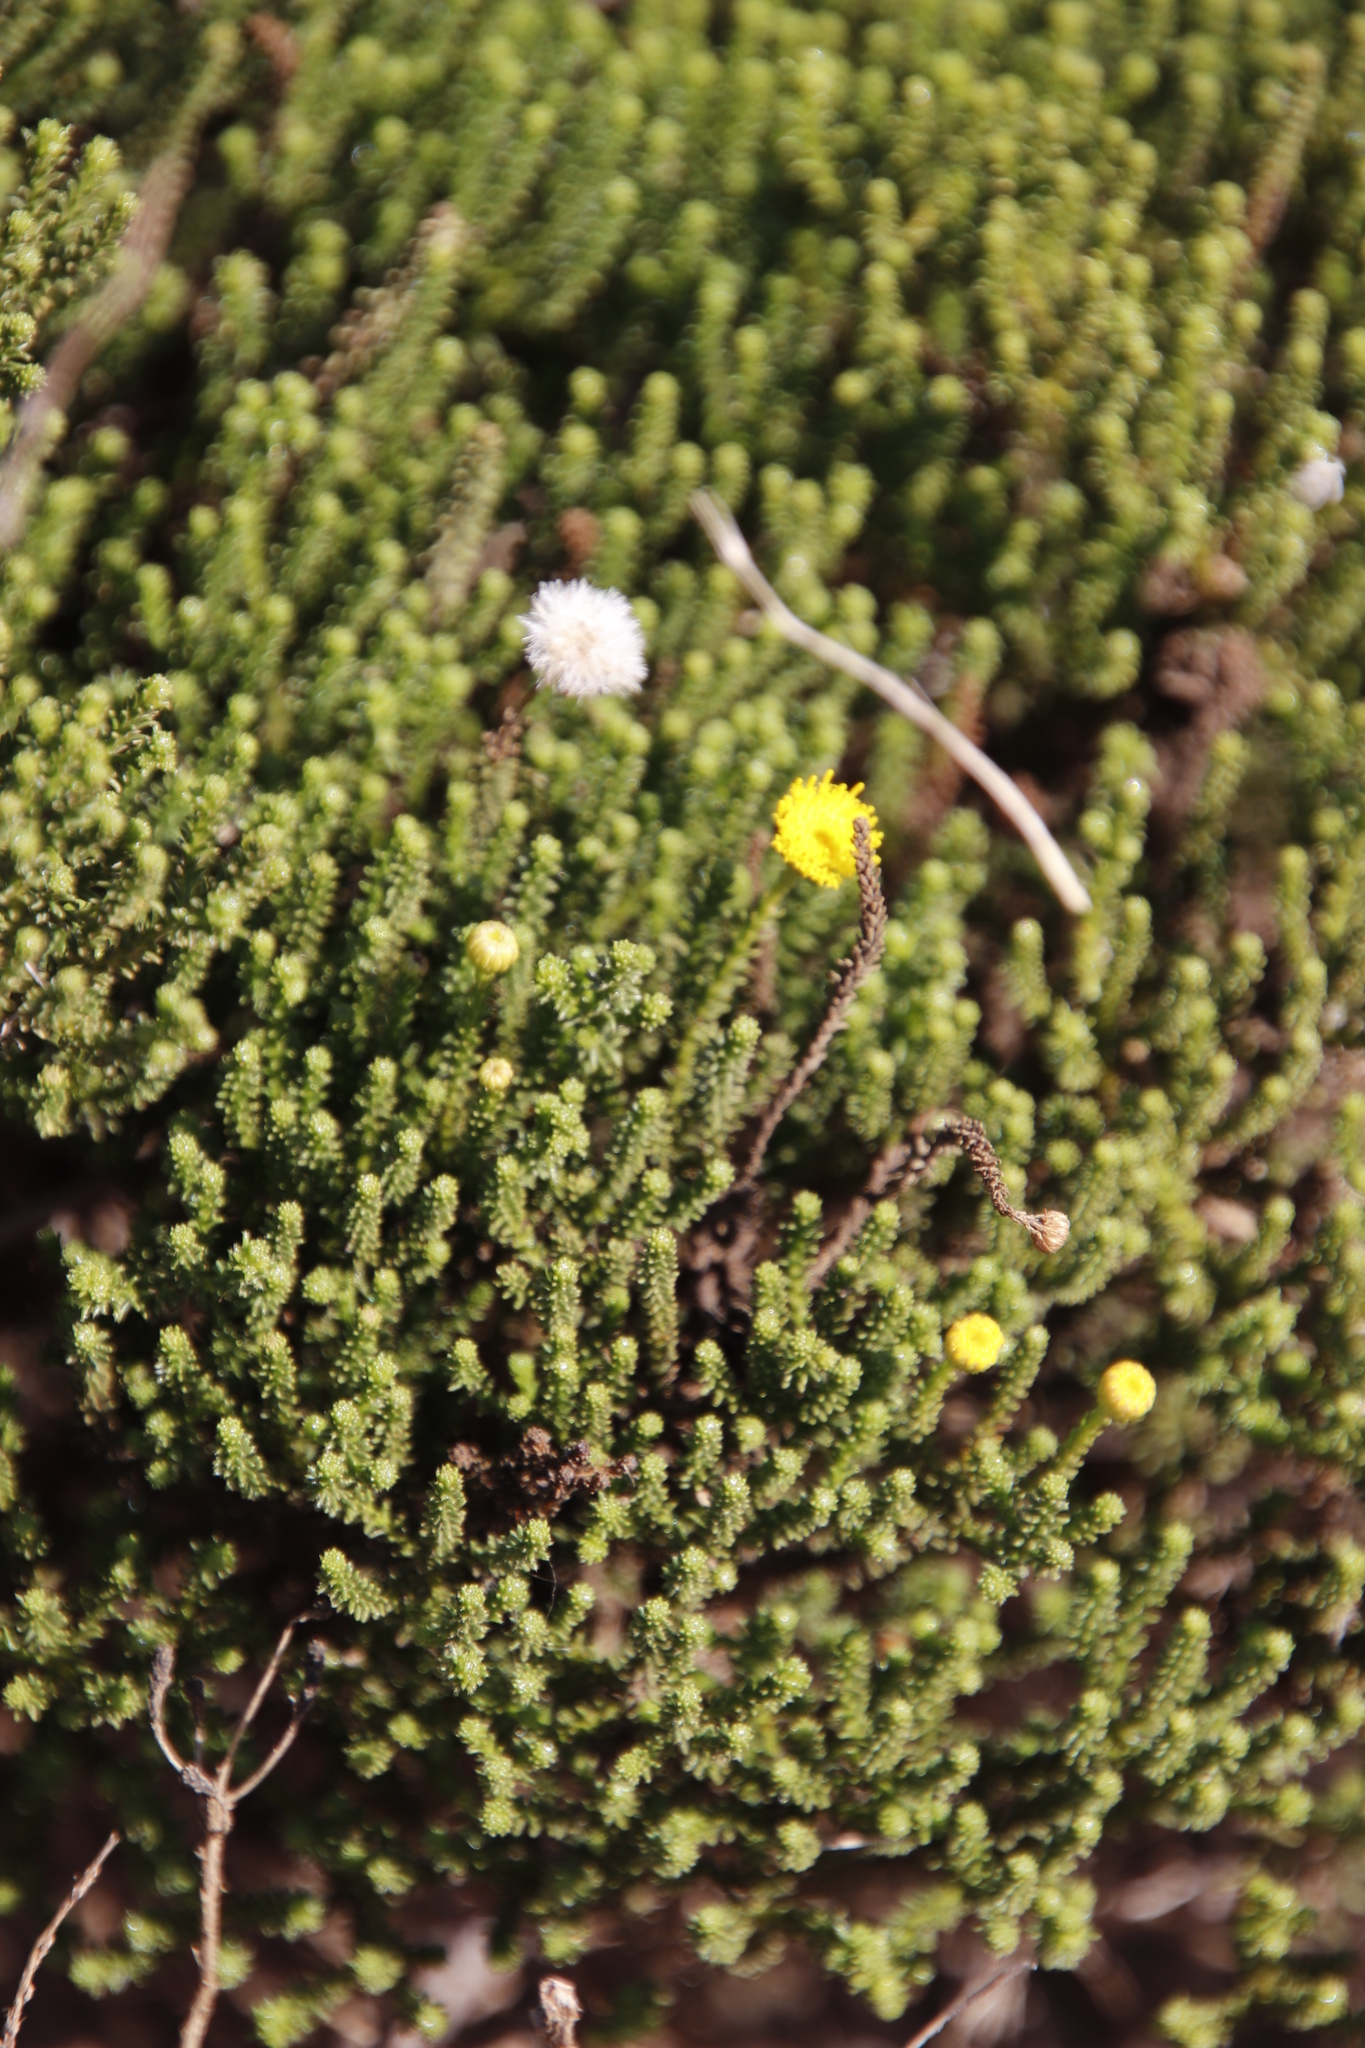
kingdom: Plantae
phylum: Tracheophyta
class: Magnoliopsida
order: Asterales
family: Asteraceae
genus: Chrysocoma
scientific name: Chrysocoma ciliata
